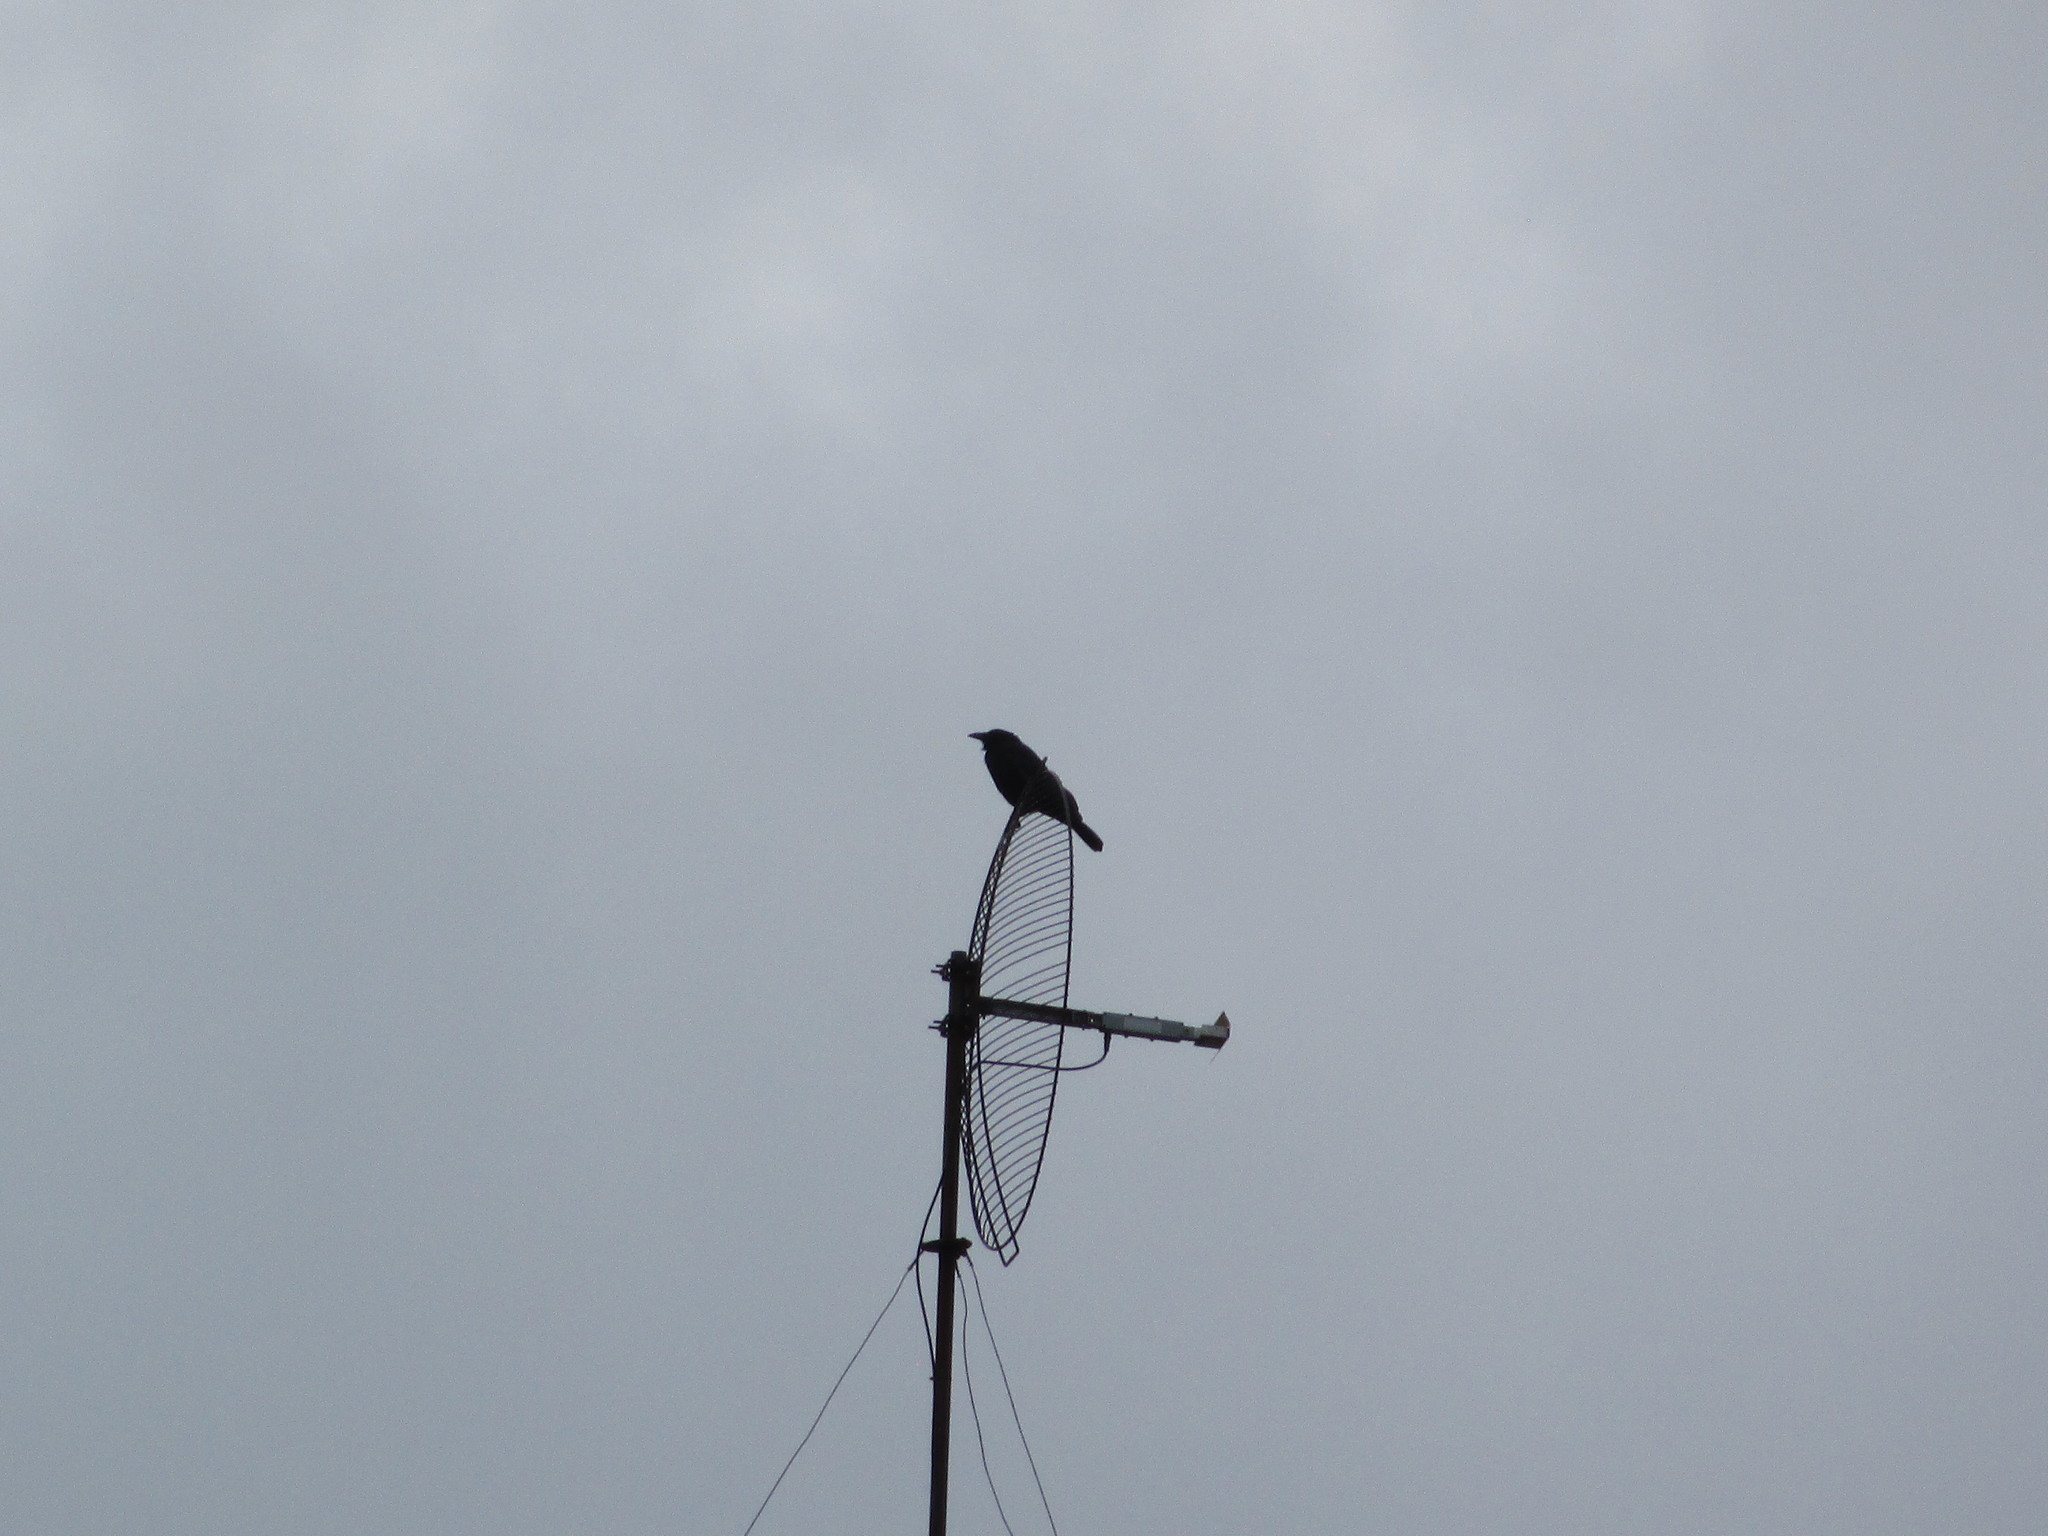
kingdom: Animalia
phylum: Chordata
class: Aves
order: Passeriformes
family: Corvidae
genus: Corvus
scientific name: Corvus brachyrhynchos
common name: American crow
